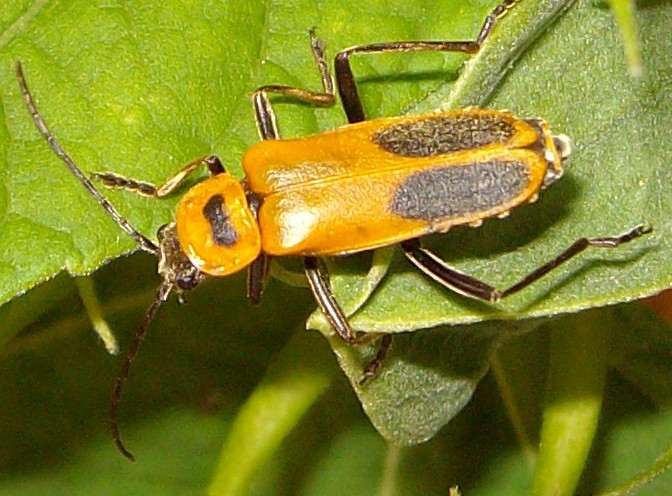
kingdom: Animalia
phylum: Arthropoda
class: Insecta
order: Coleoptera
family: Cantharidae
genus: Chauliognathus
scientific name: Chauliognathus pensylvanicus
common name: Goldenrod soldier beetle
